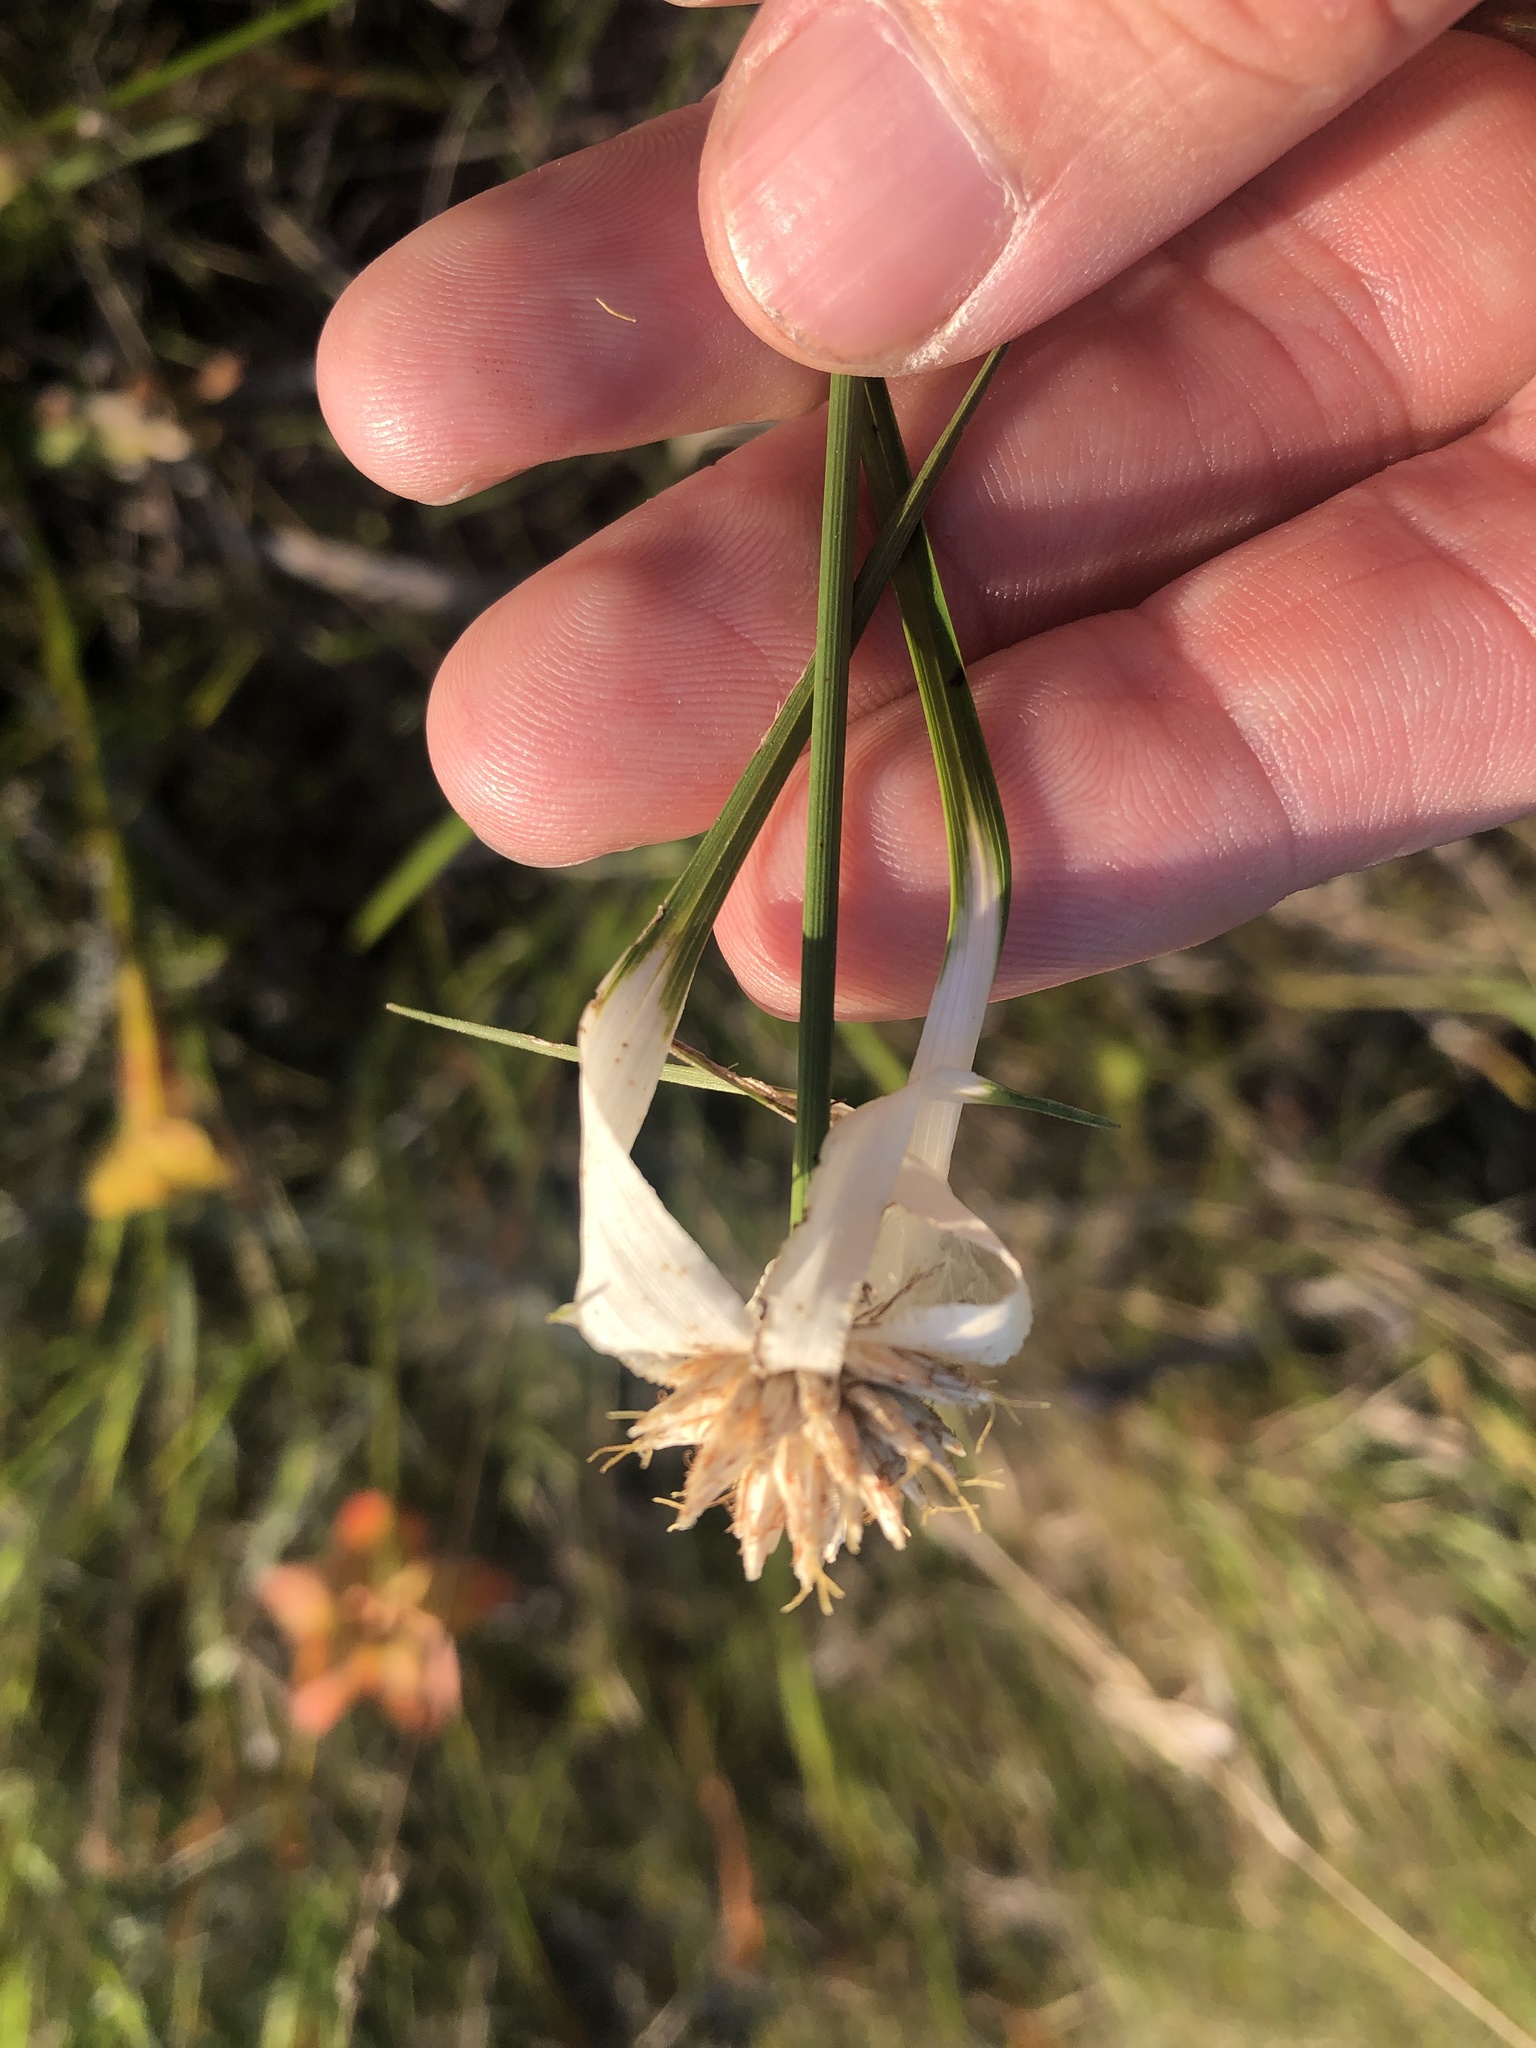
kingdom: Plantae
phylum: Tracheophyta
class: Liliopsida
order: Poales
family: Cyperaceae
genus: Rhynchospora
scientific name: Rhynchospora latifolia
